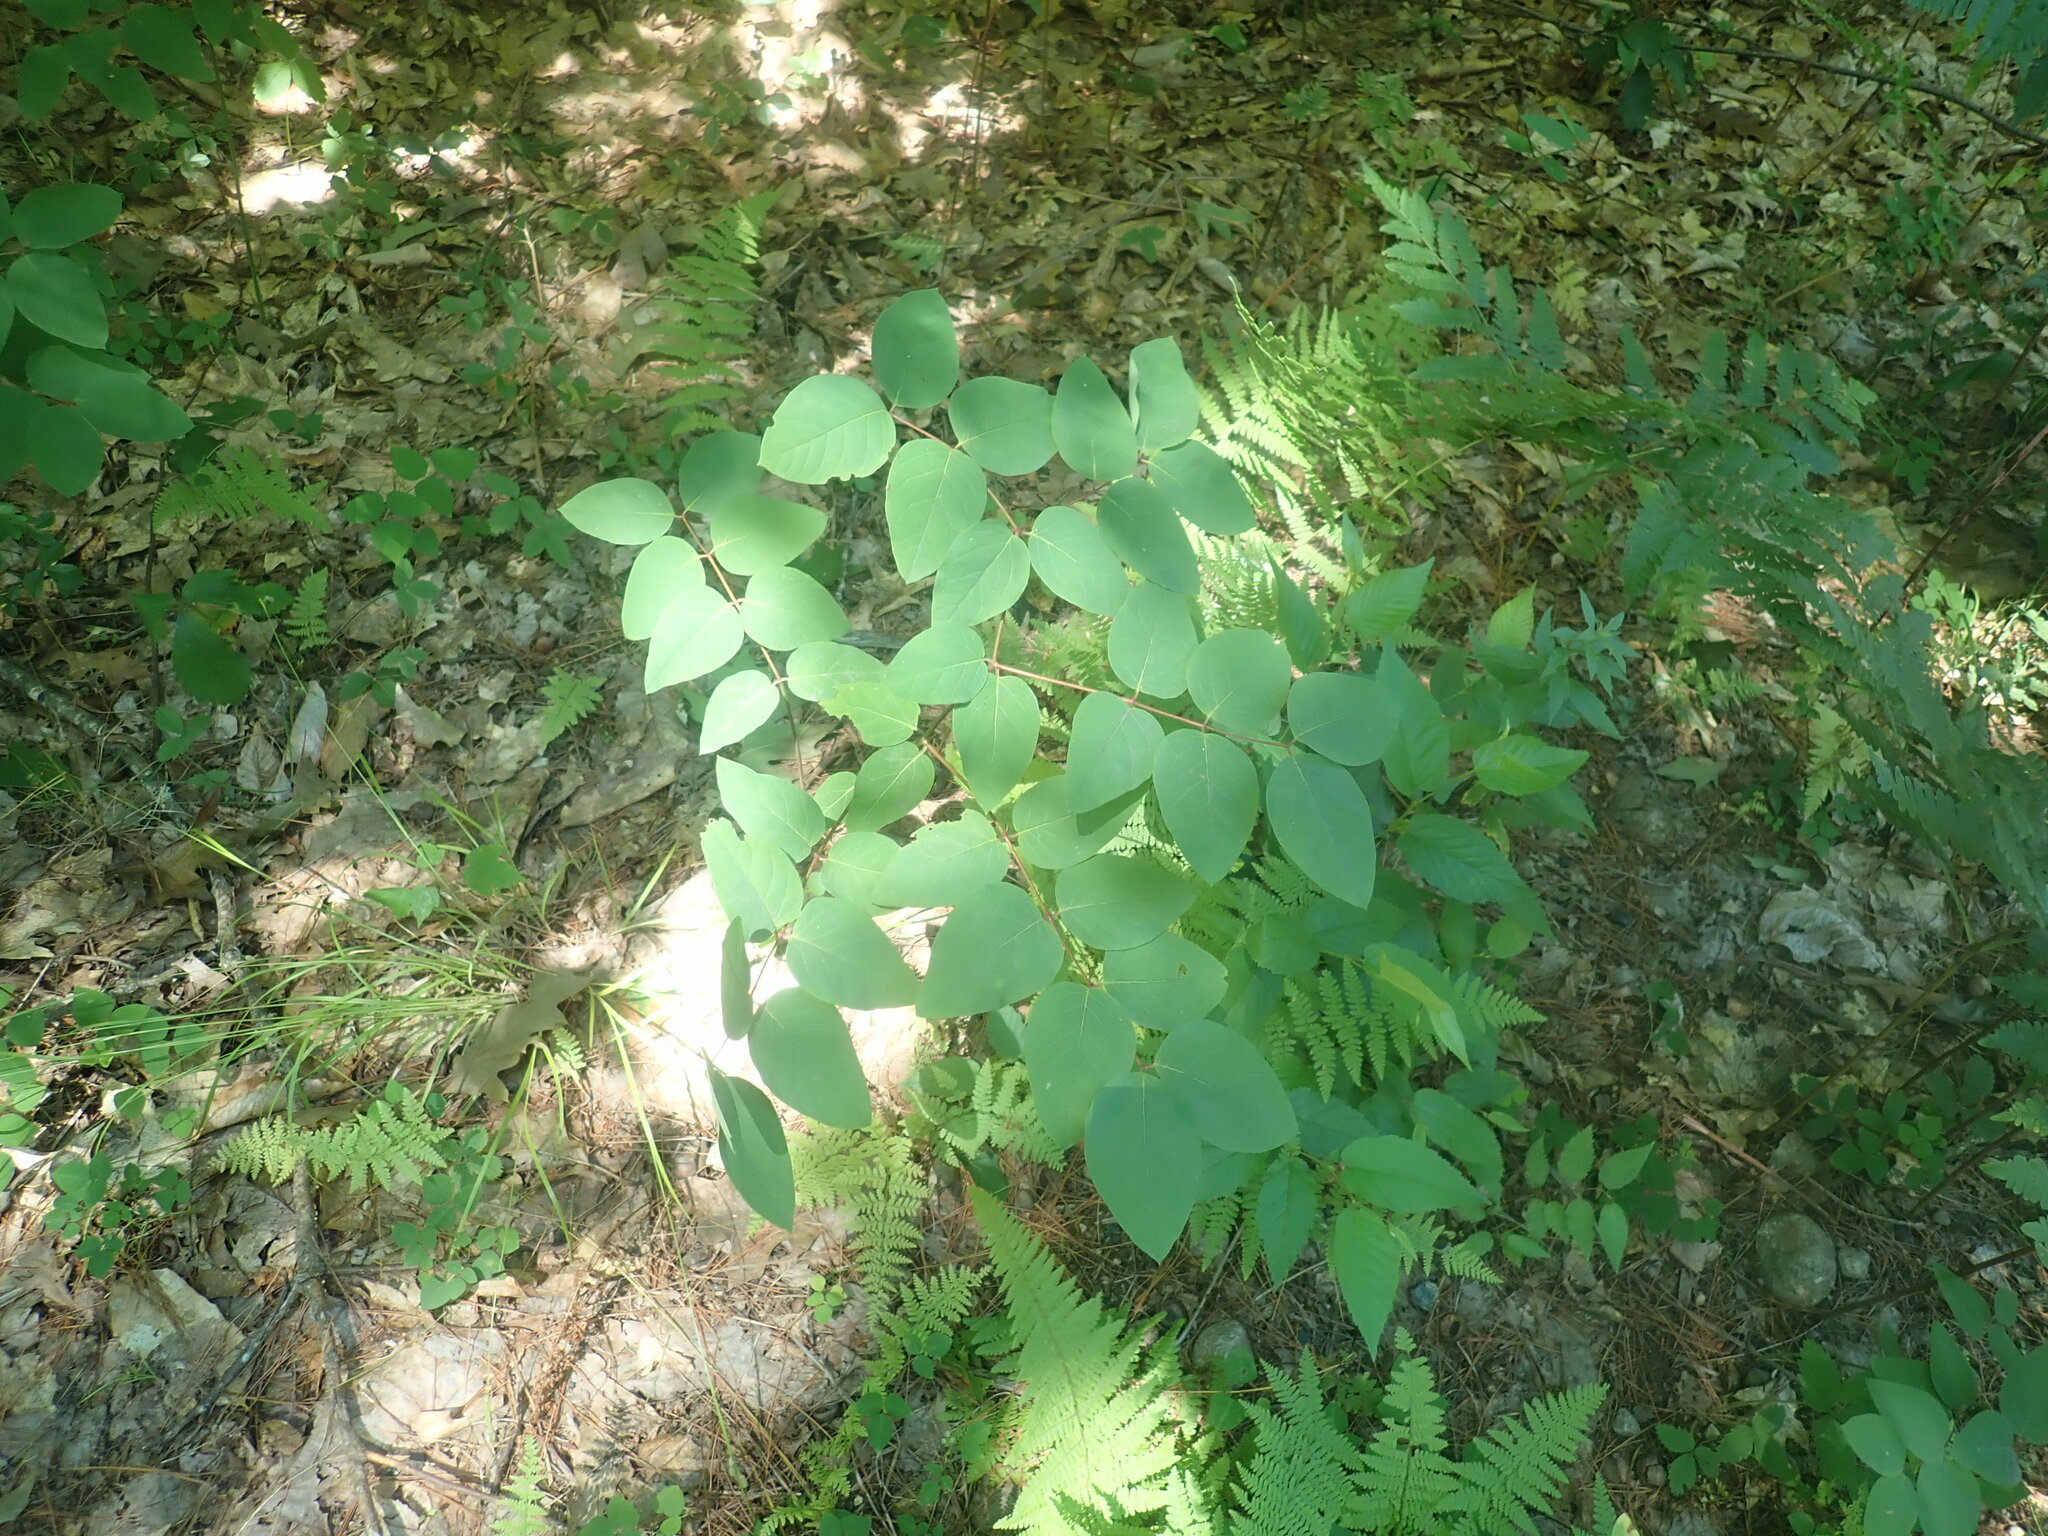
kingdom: Plantae
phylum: Tracheophyta
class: Magnoliopsida
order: Gentianales
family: Apocynaceae
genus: Apocynum
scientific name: Apocynum androsaemifolium
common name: Spreading dogbane
